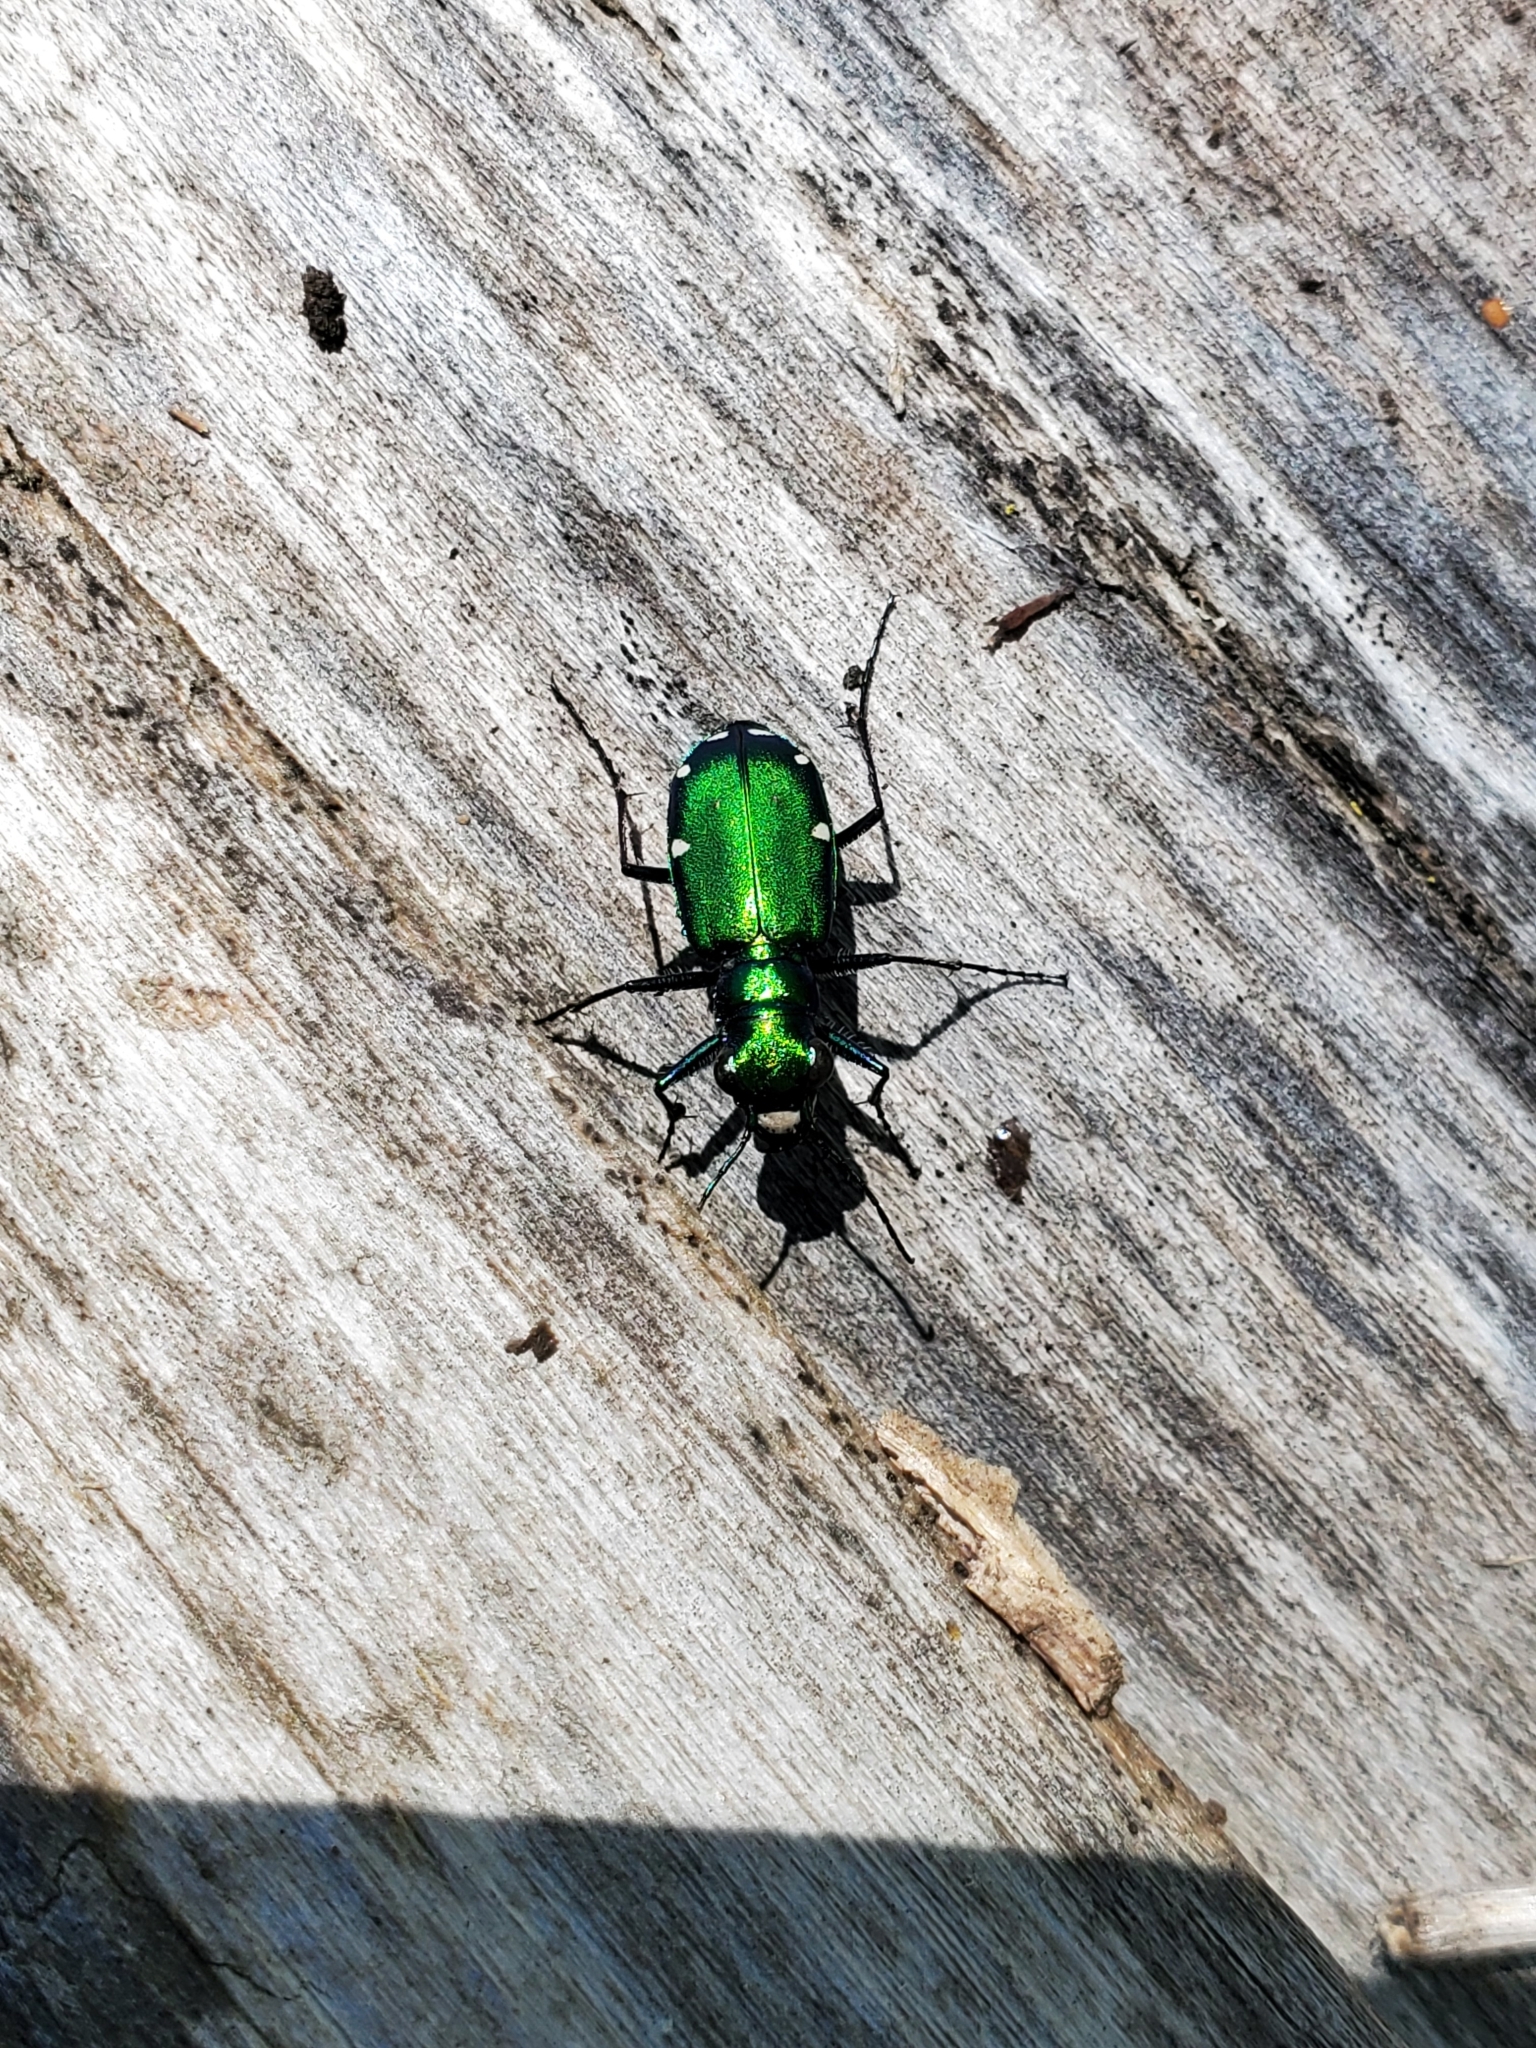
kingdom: Animalia
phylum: Arthropoda
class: Insecta
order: Coleoptera
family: Carabidae
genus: Cicindela
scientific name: Cicindela sexguttata
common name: Six-spotted tiger beetle
